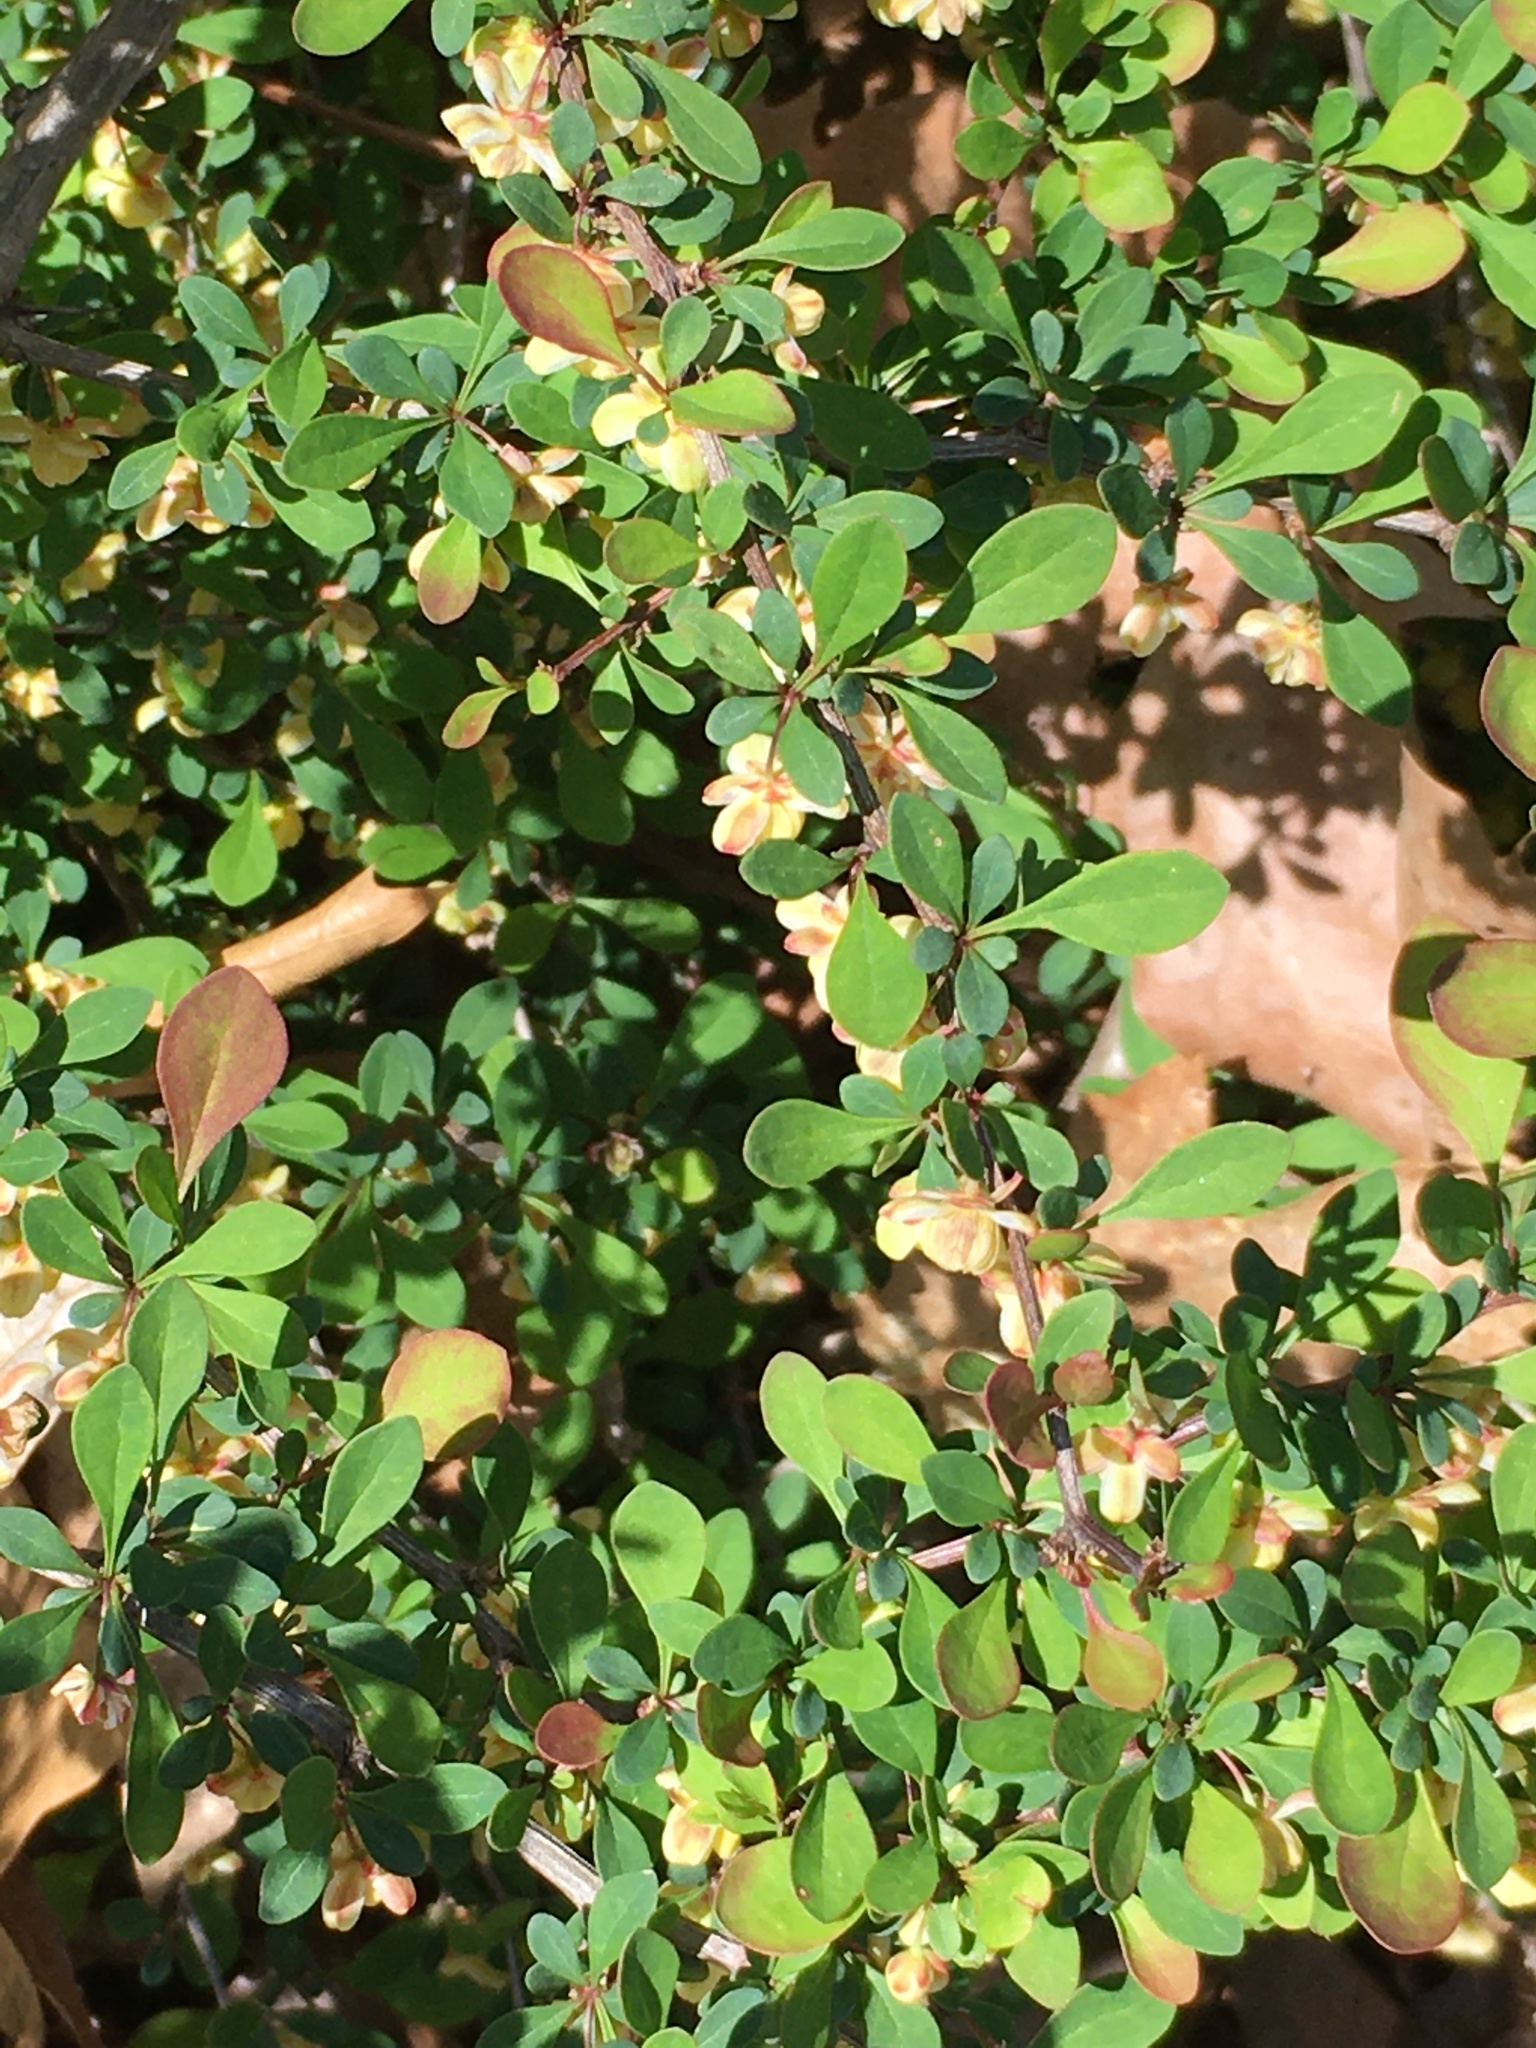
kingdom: Plantae
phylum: Tracheophyta
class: Magnoliopsida
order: Ranunculales
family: Berberidaceae
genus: Berberis
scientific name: Berberis thunbergii
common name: Japanese barberry
